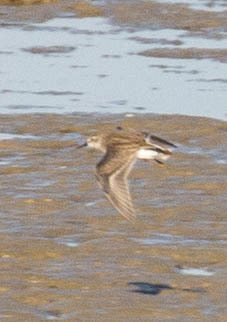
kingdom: Animalia
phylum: Chordata
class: Aves
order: Charadriiformes
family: Scolopacidae
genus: Calidris
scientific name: Calidris minutilla
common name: Least sandpiper
